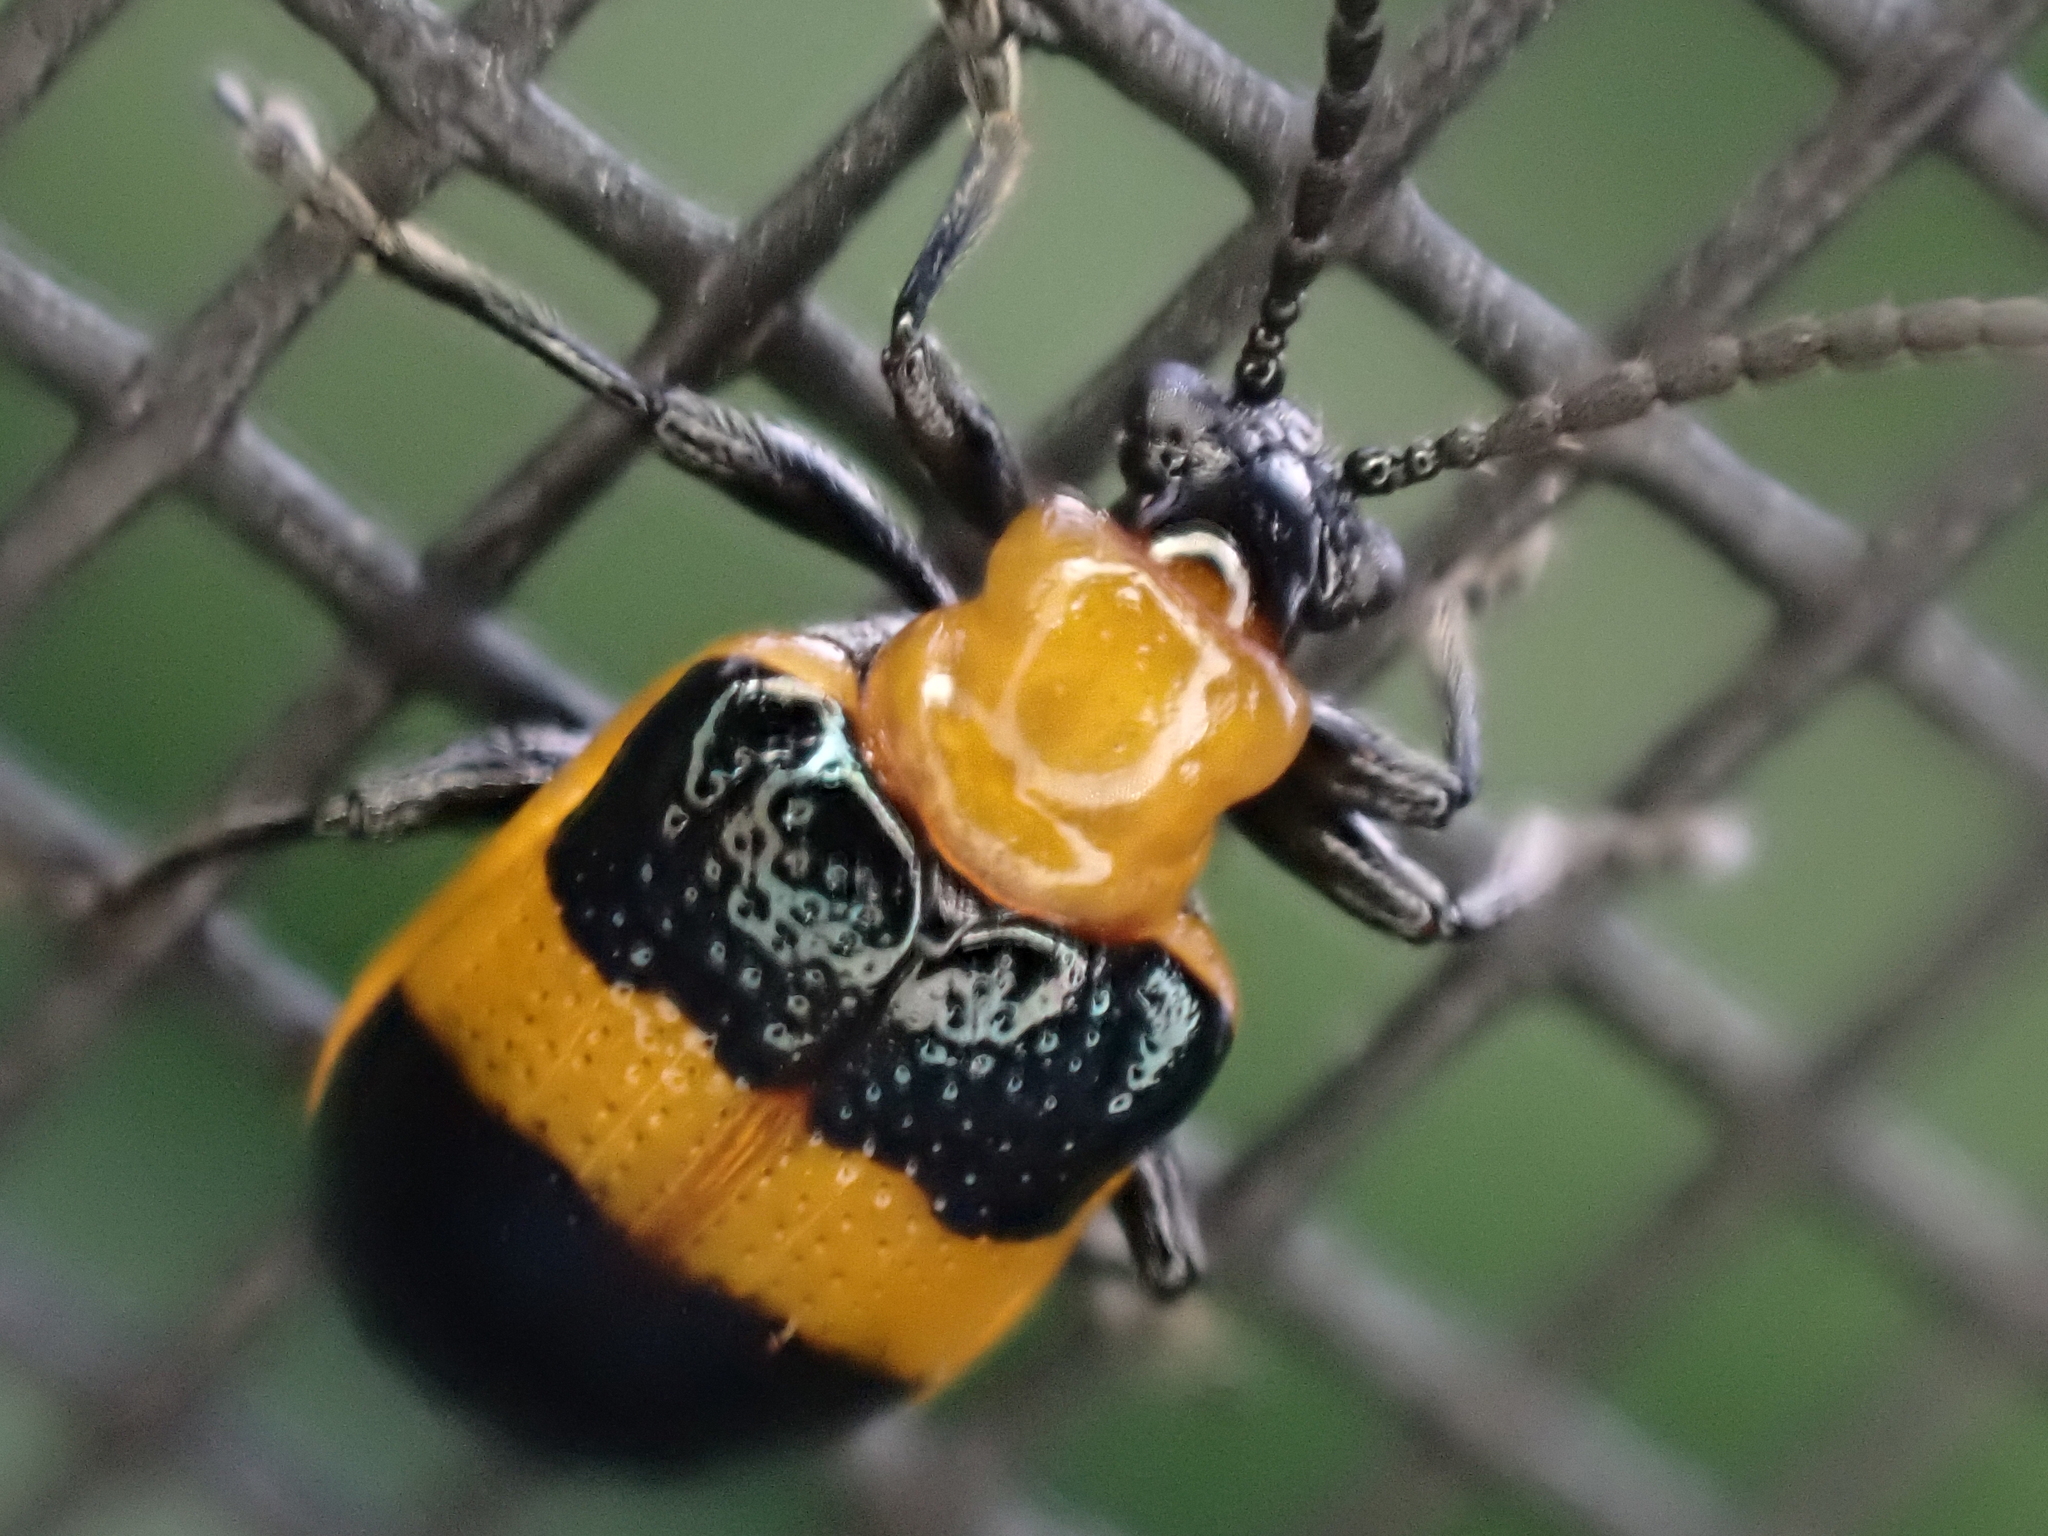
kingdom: Animalia
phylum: Arthropoda
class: Insecta
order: Coleoptera
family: Chrysomelidae
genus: Lema
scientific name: Lema solani
